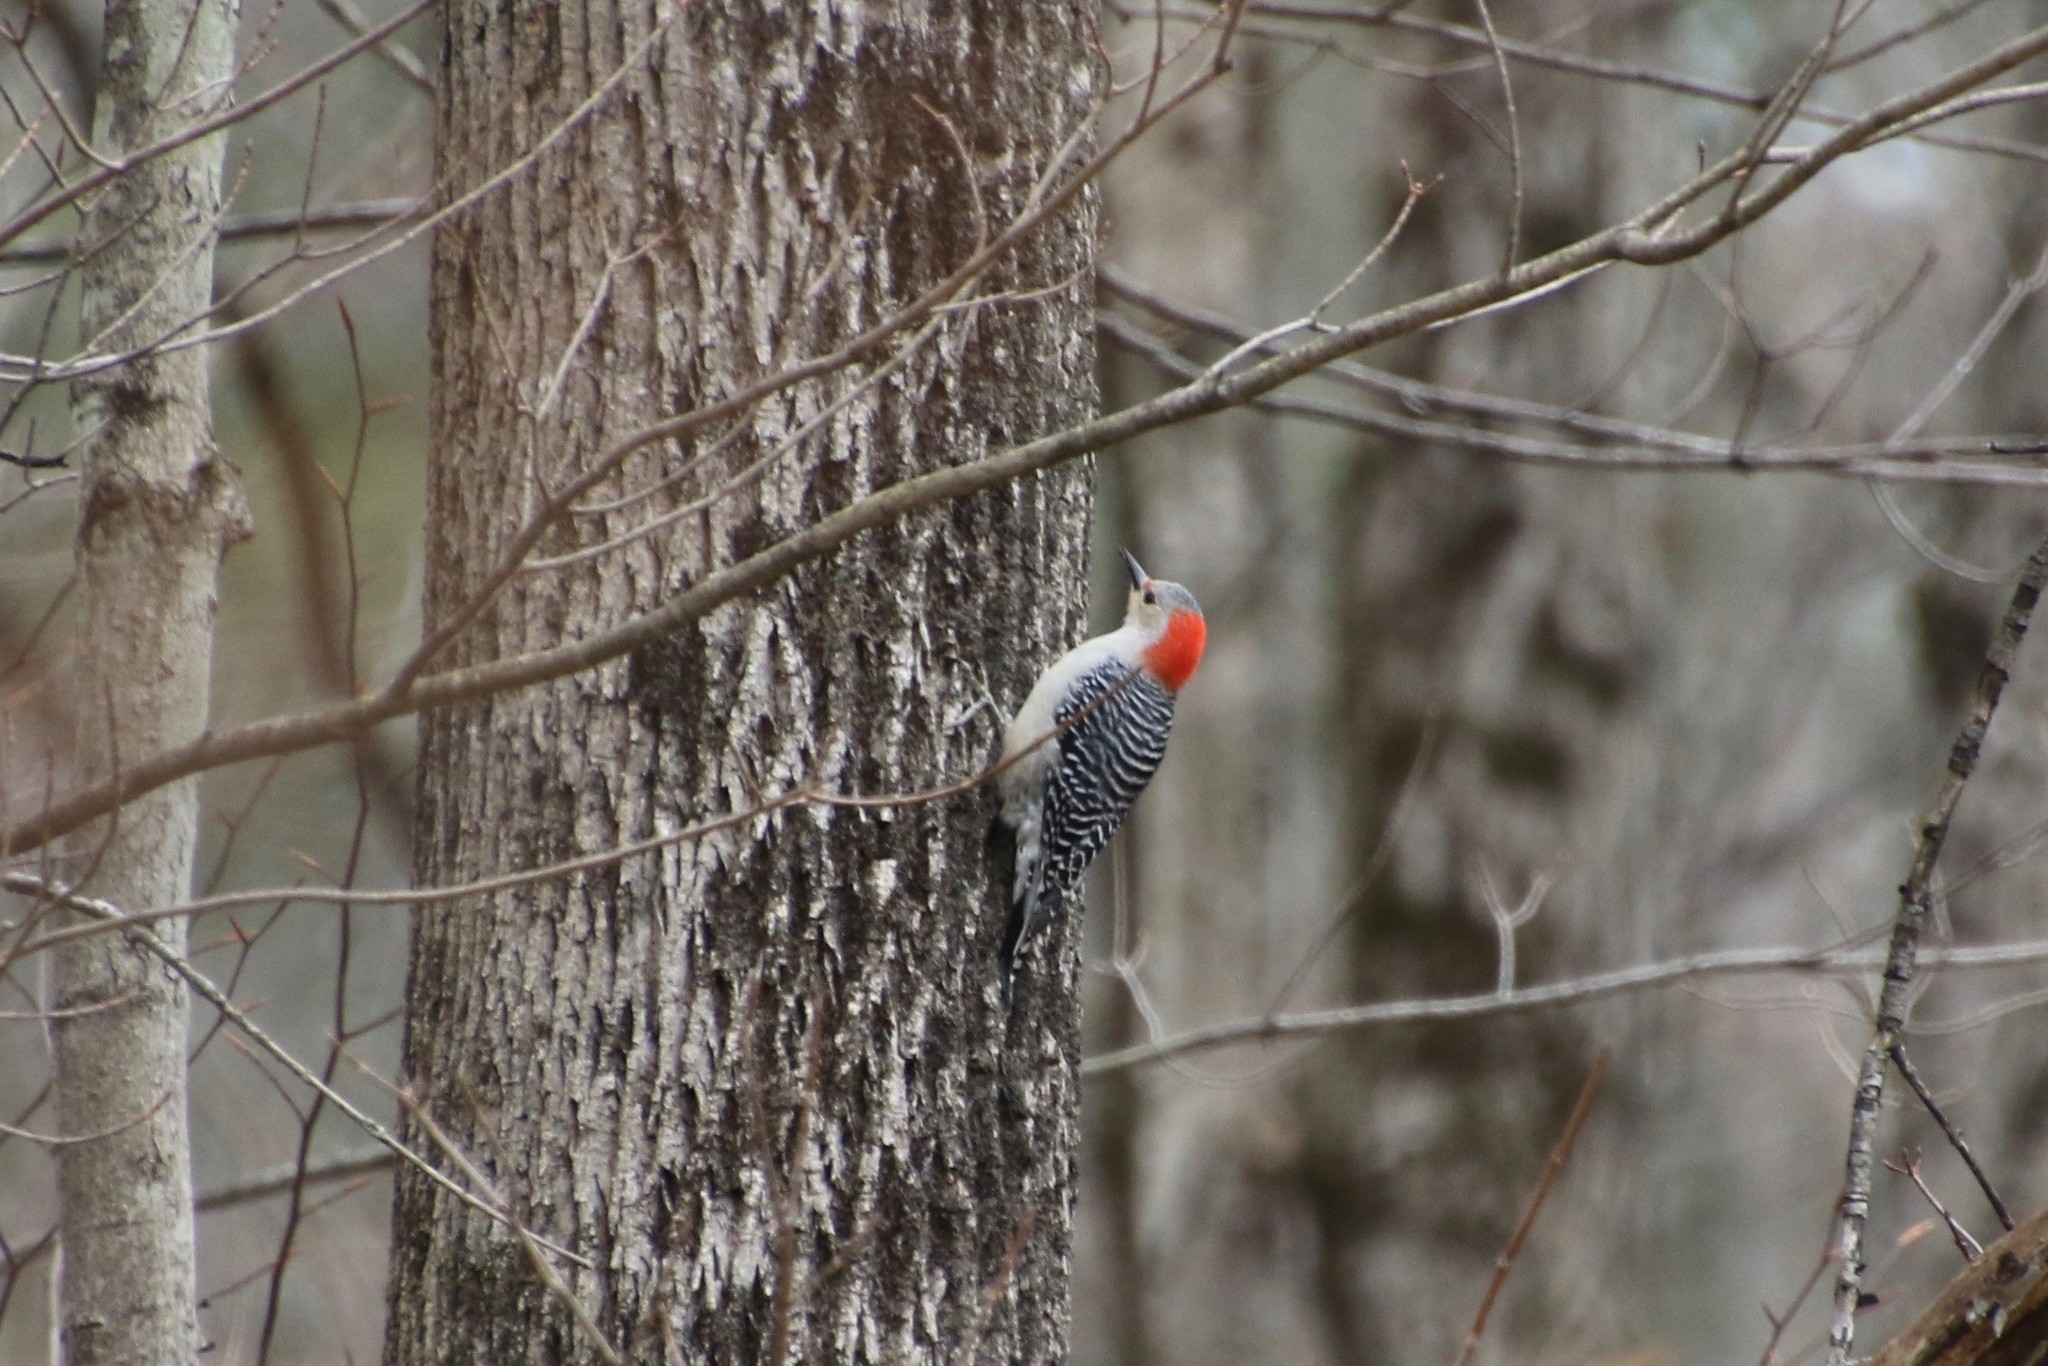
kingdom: Animalia
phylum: Chordata
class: Aves
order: Piciformes
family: Picidae
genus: Melanerpes
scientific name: Melanerpes carolinus
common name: Red-bellied woodpecker
